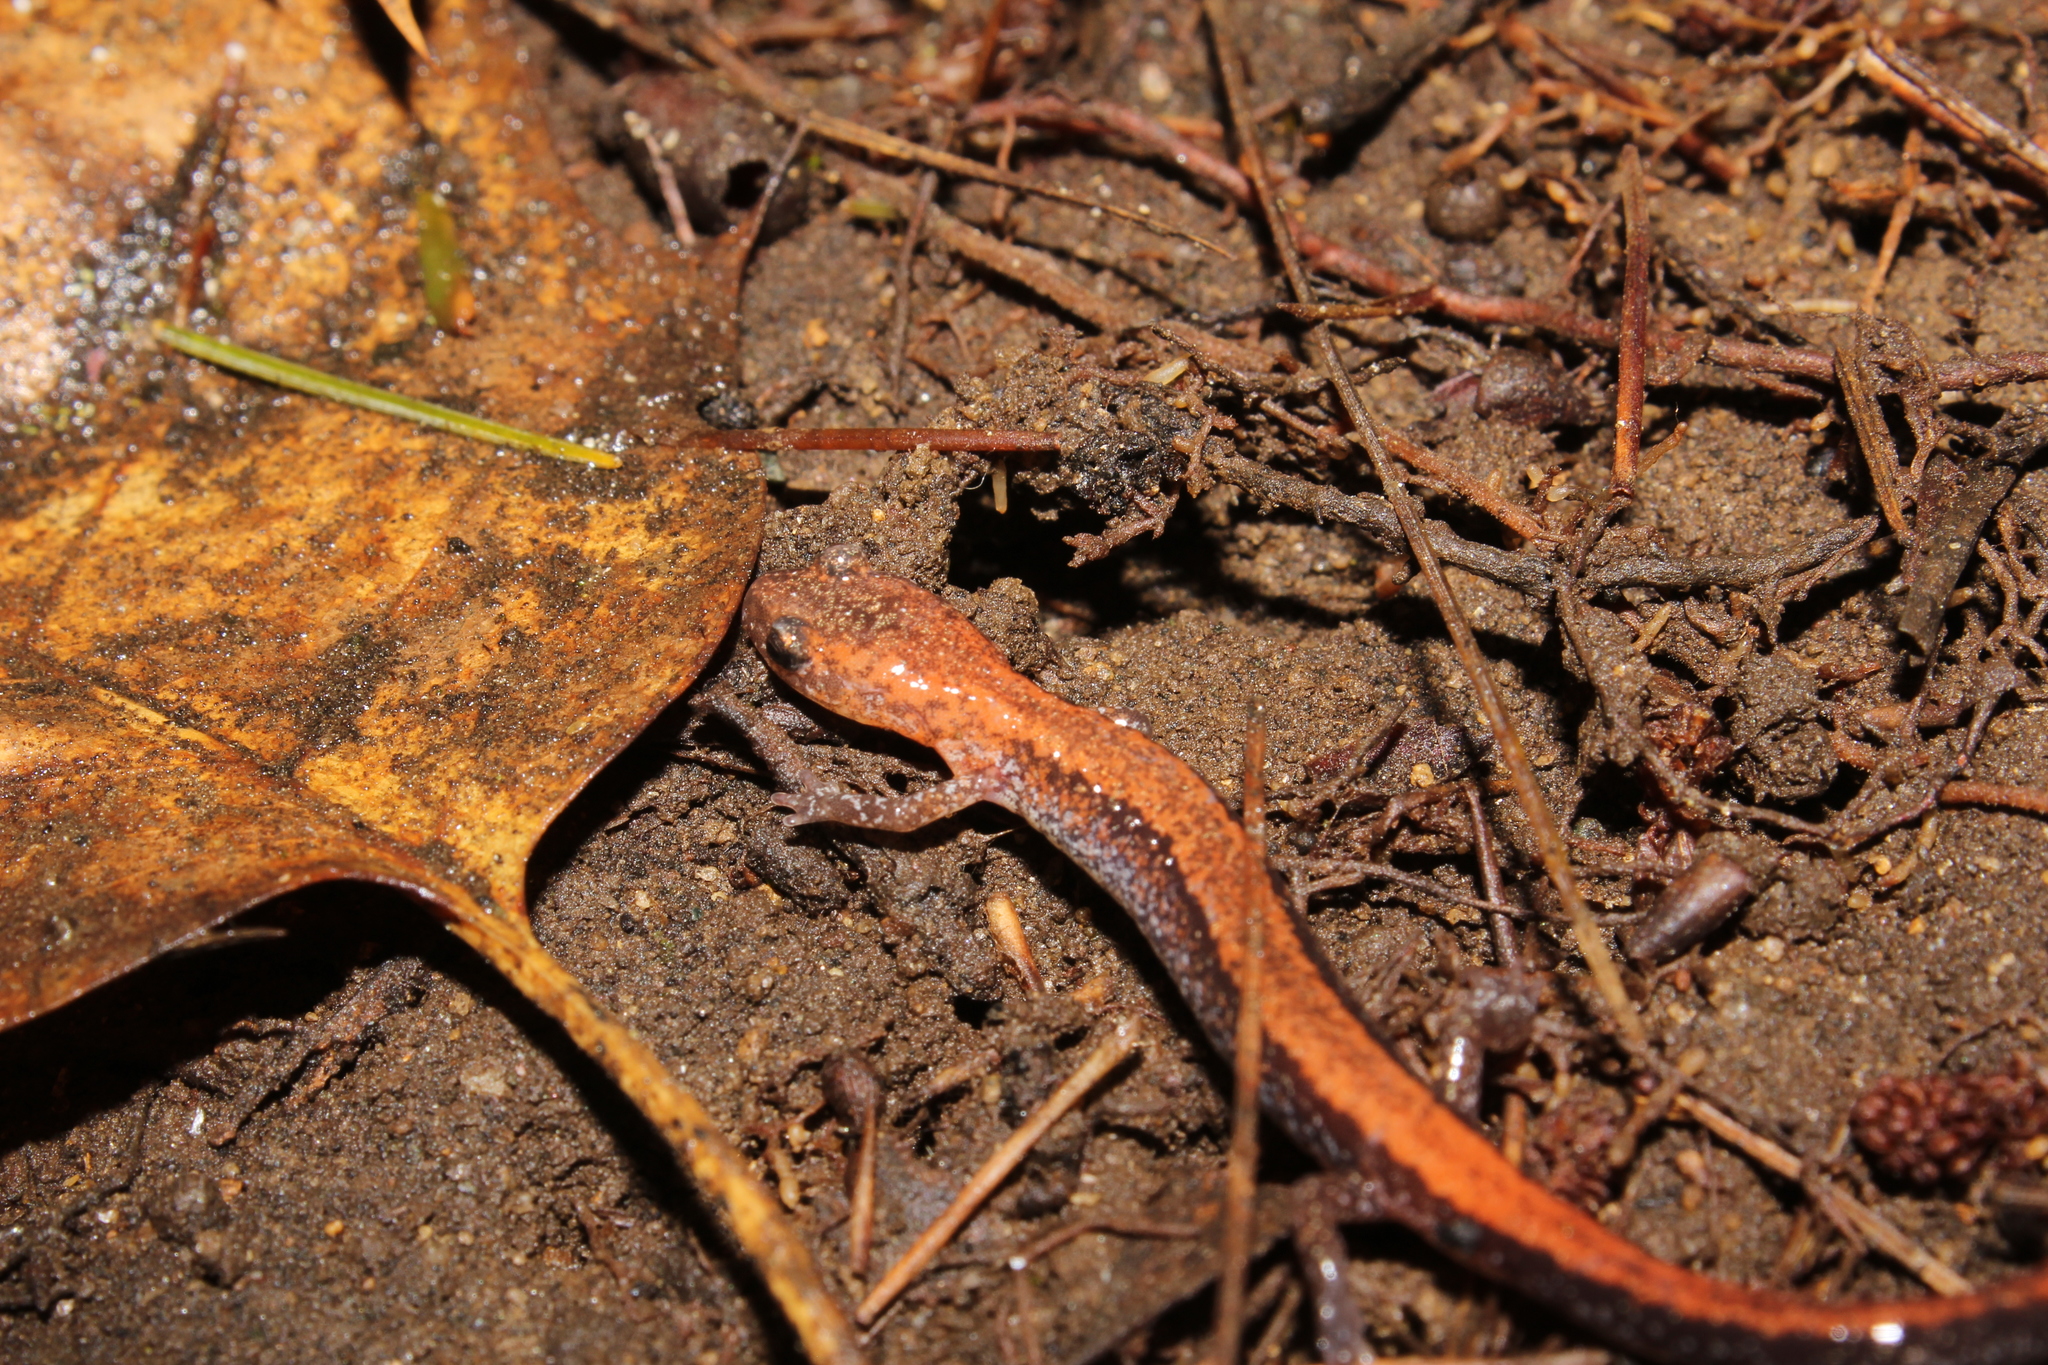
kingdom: Animalia
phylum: Chordata
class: Amphibia
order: Caudata
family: Plethodontidae
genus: Plethodon
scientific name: Plethodon cinereus
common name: Redback salamander
